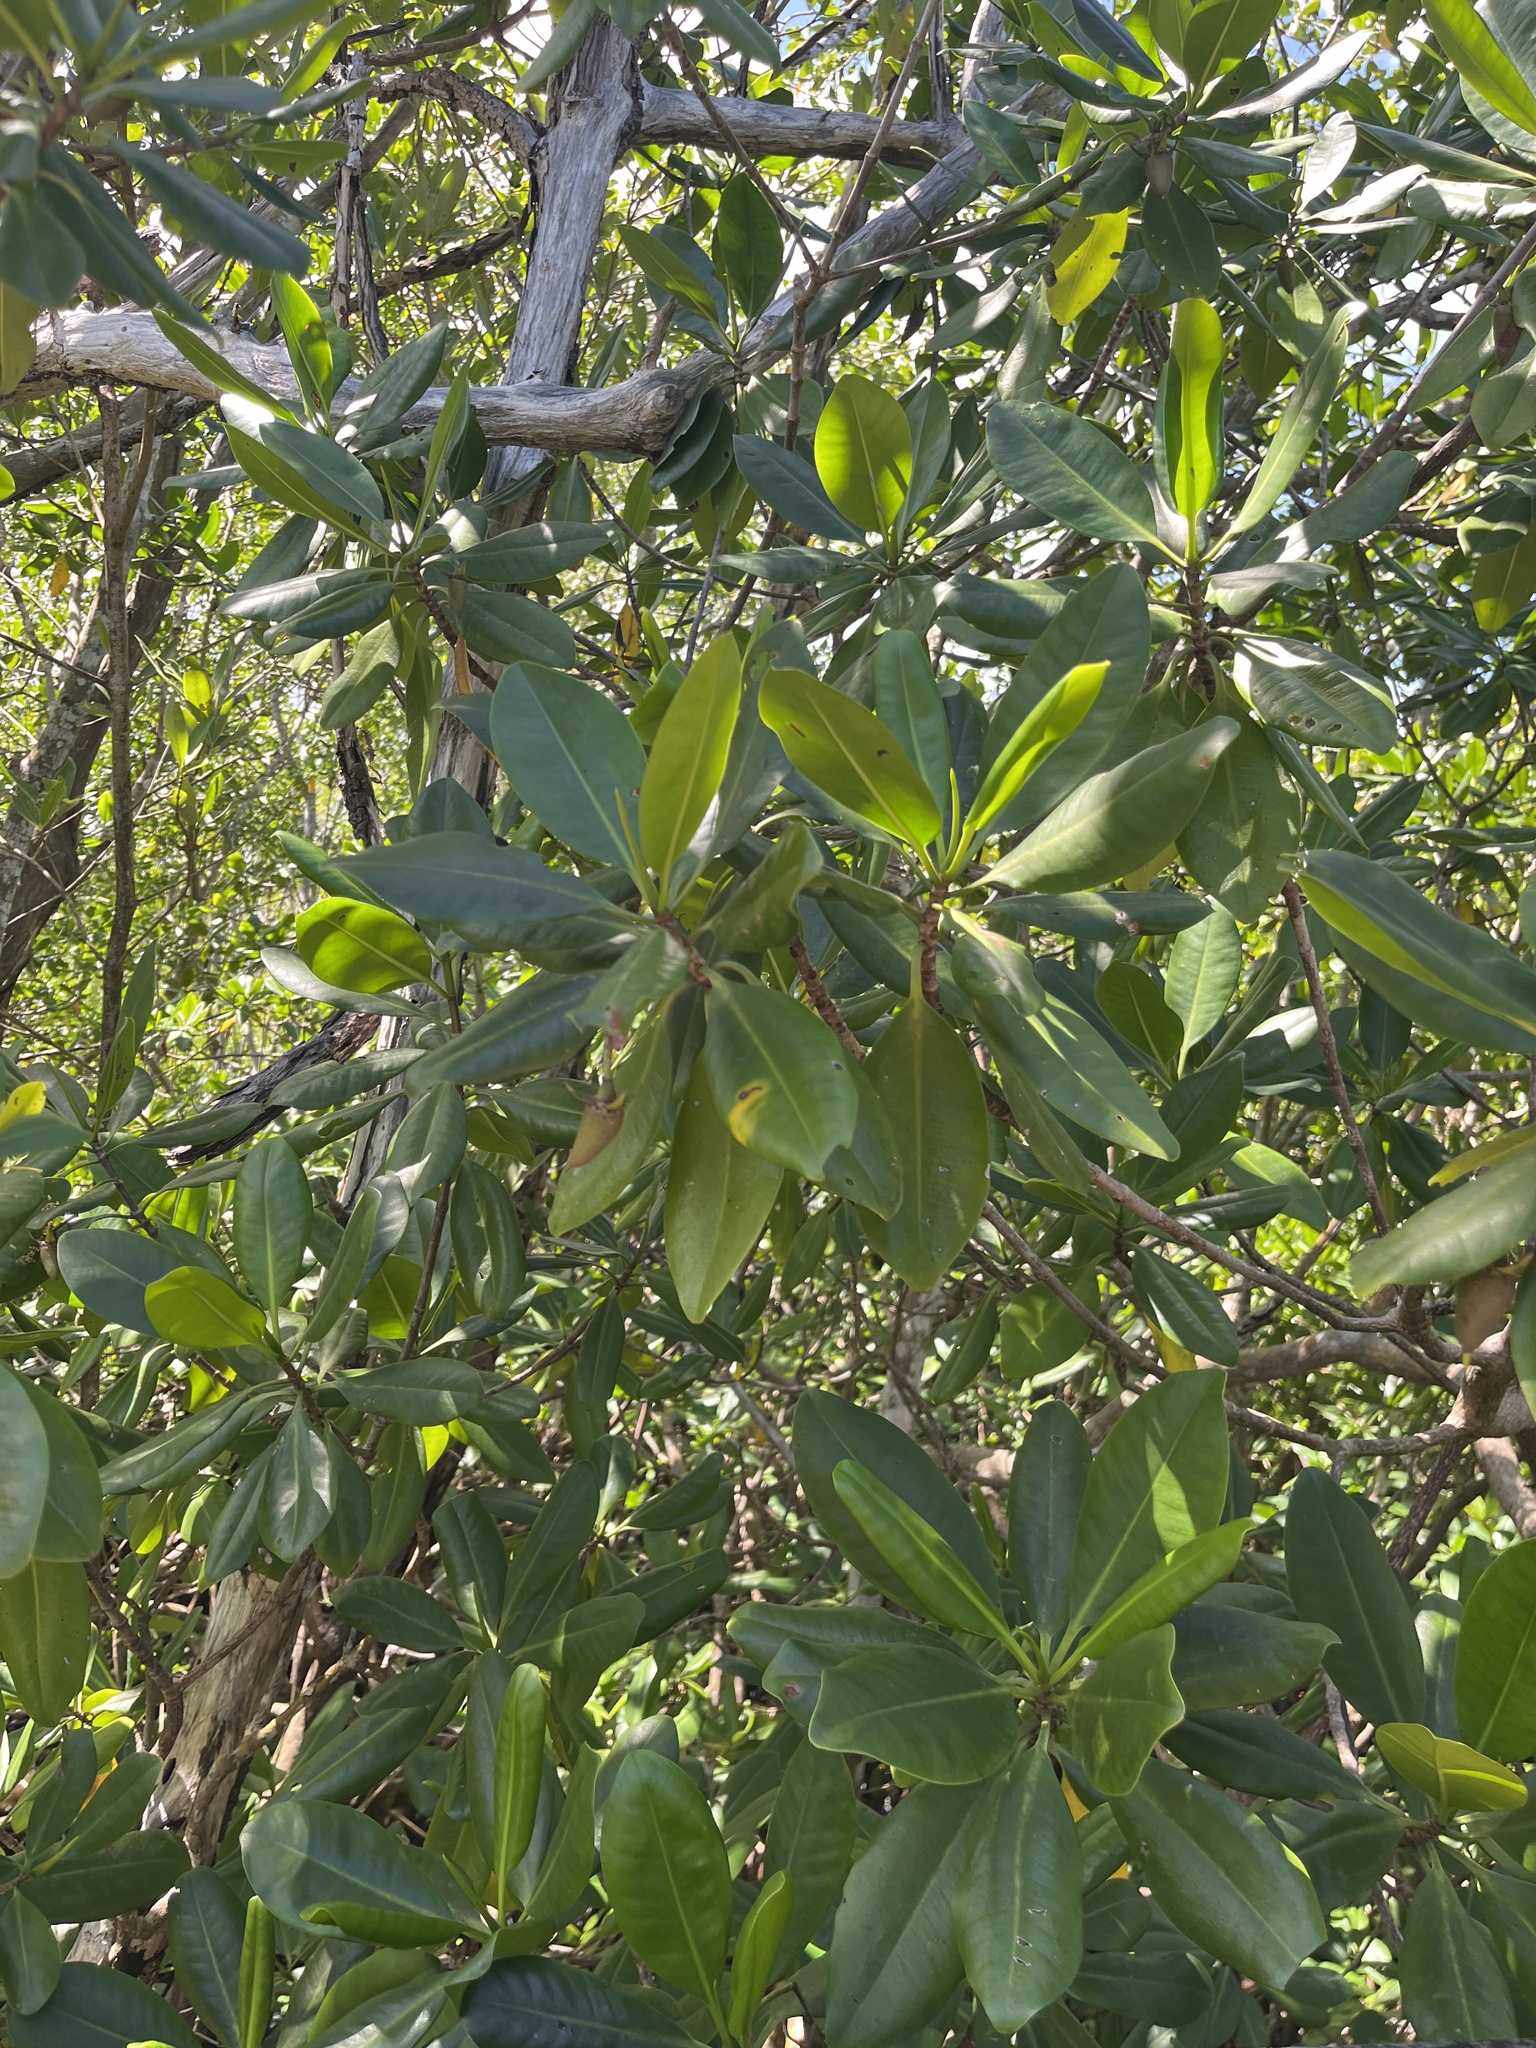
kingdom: Plantae
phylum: Tracheophyta
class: Magnoliopsida
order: Malpighiales
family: Rhizophoraceae
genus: Rhizophora
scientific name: Rhizophora mangle
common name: Red mangrove
